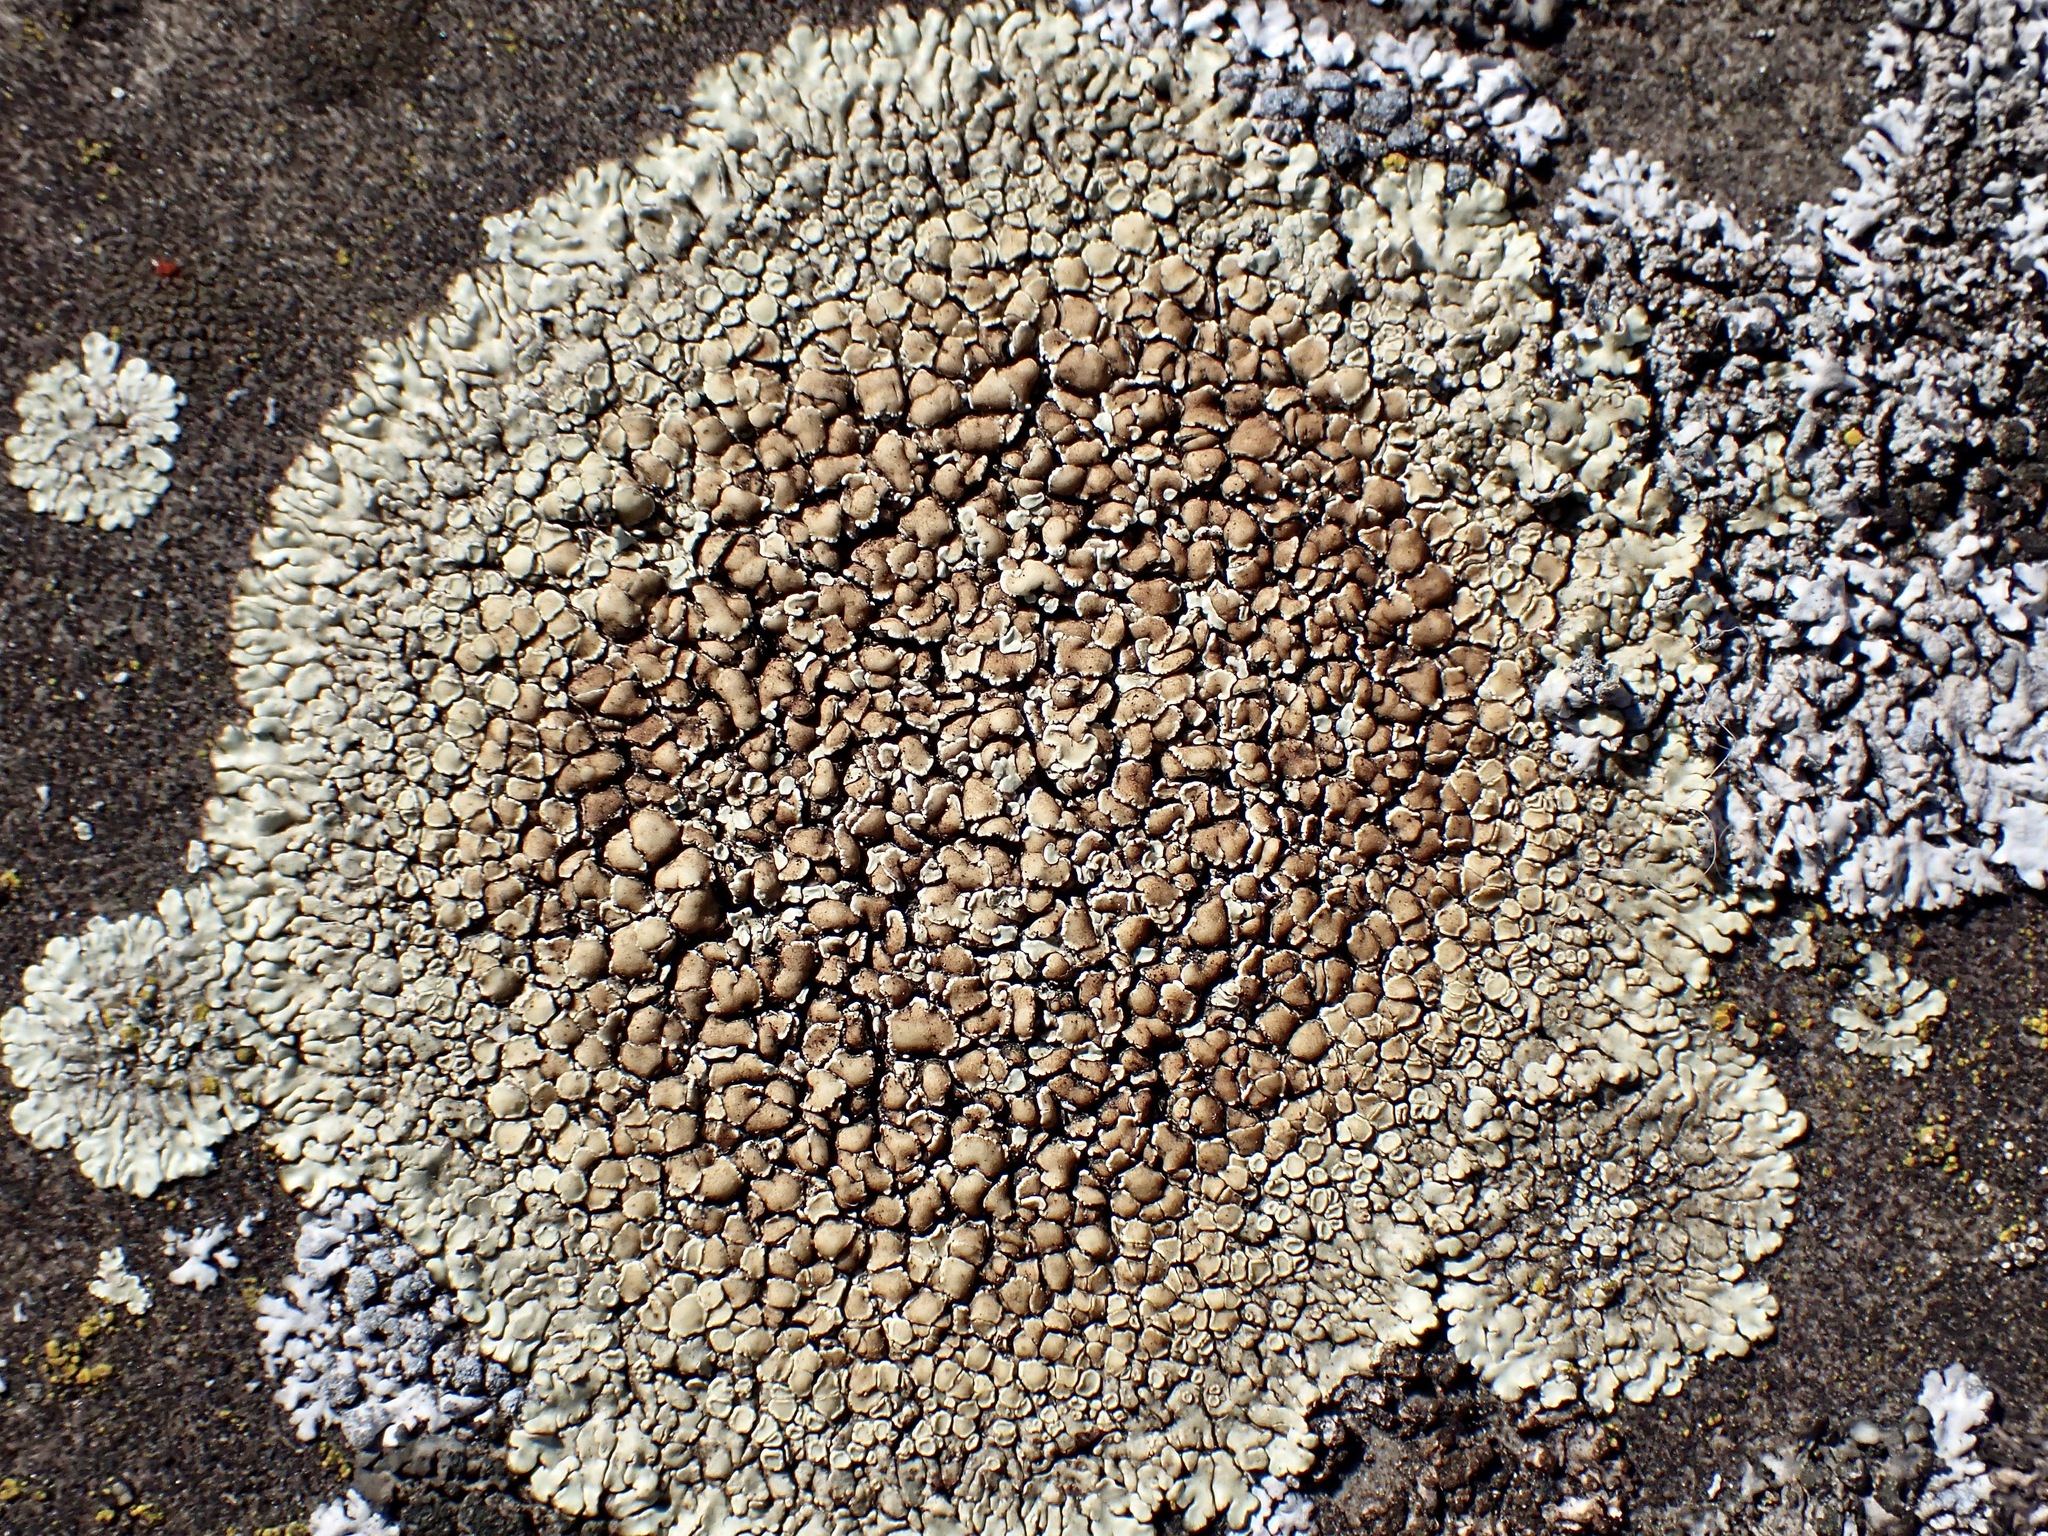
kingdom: Fungi
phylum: Ascomycota
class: Lecanoromycetes
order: Lecanorales
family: Lecanoraceae
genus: Protoparmeliopsis
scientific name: Protoparmeliopsis muralis
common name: Stonewall rim lichen
